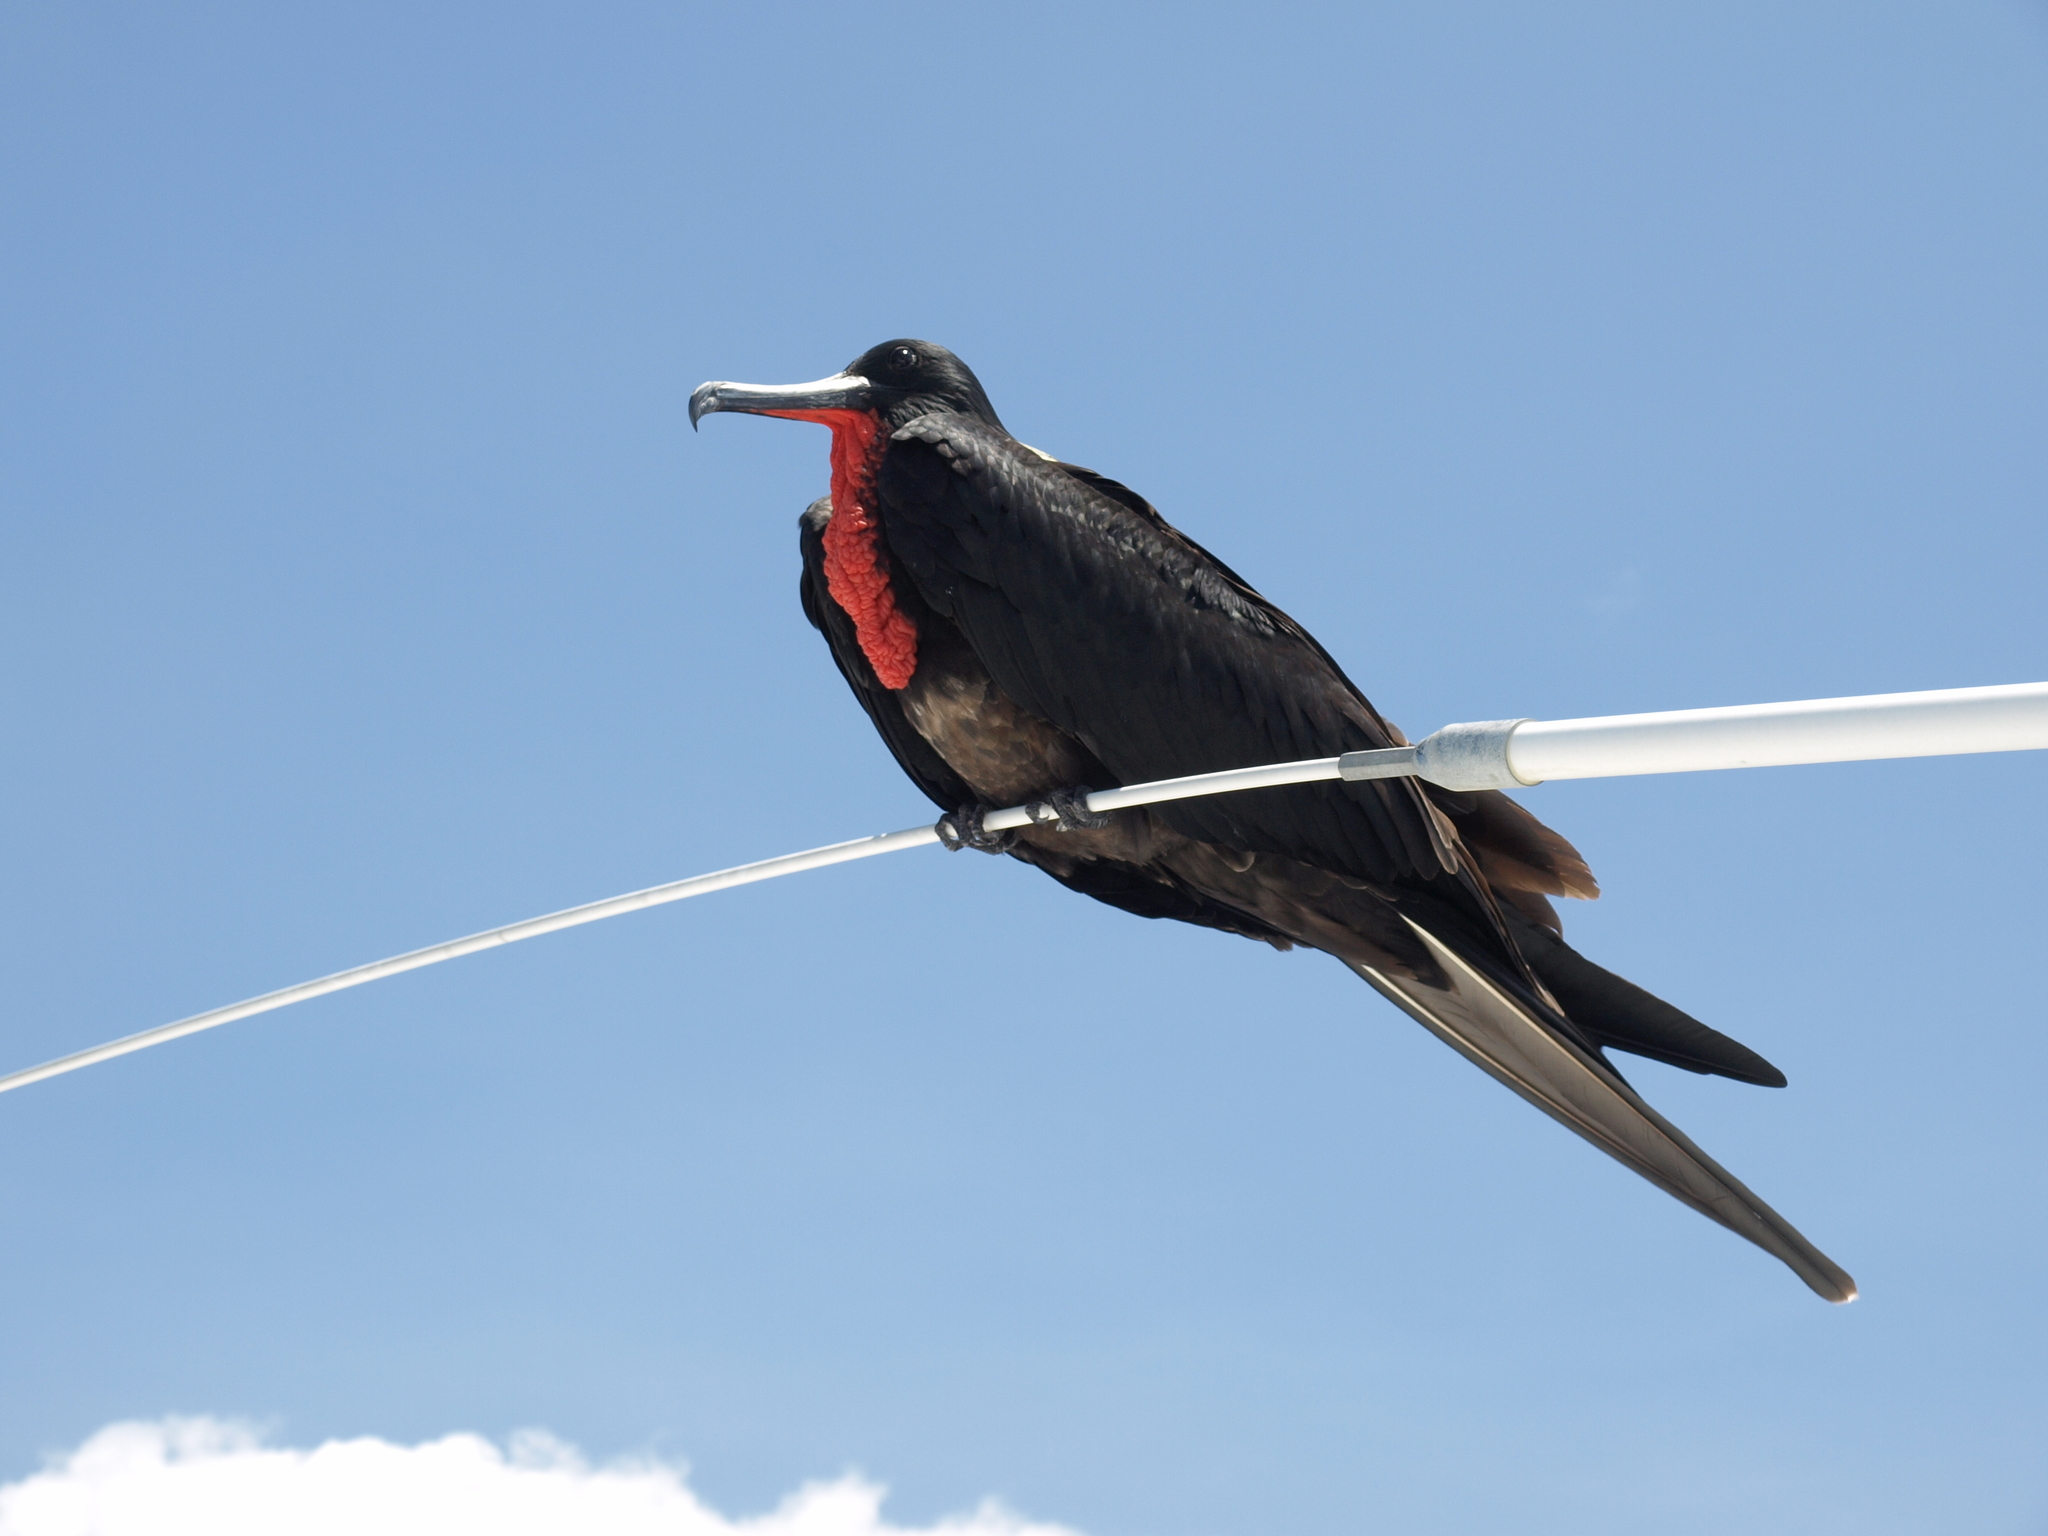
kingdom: Animalia
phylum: Chordata
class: Aves
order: Suliformes
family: Fregatidae
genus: Fregata
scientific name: Fregata magnificens
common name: Magnificent frigatebird
